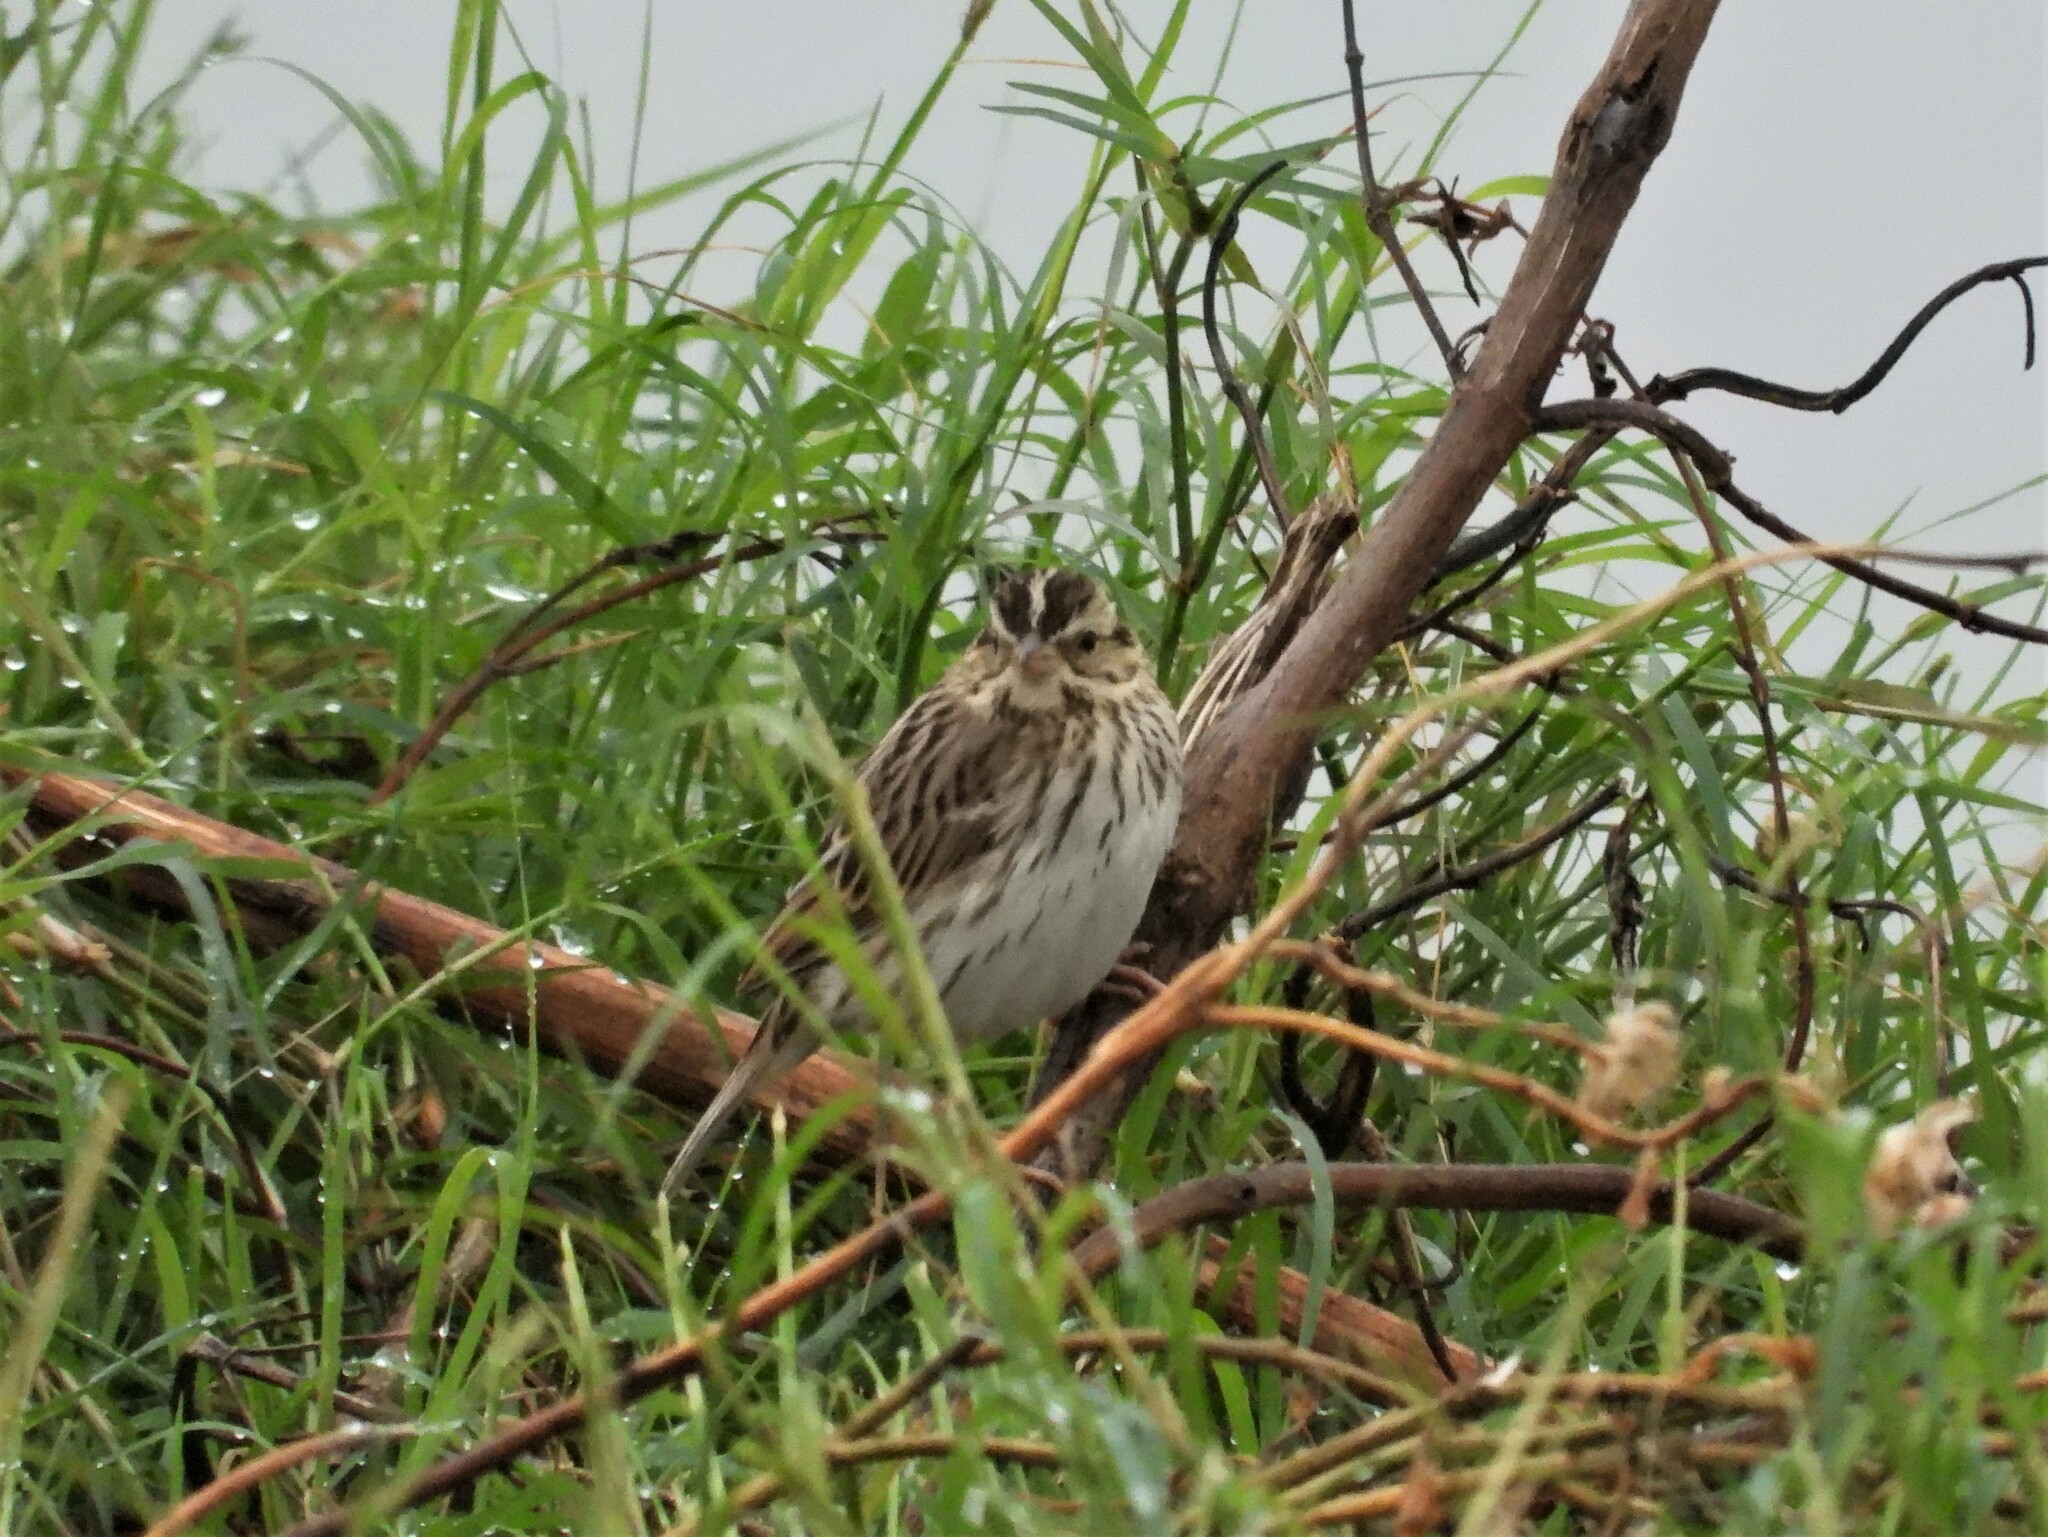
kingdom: Animalia
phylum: Chordata
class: Aves
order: Passeriformes
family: Passerellidae
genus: Passerculus
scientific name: Passerculus sandwichensis
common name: Savannah sparrow
